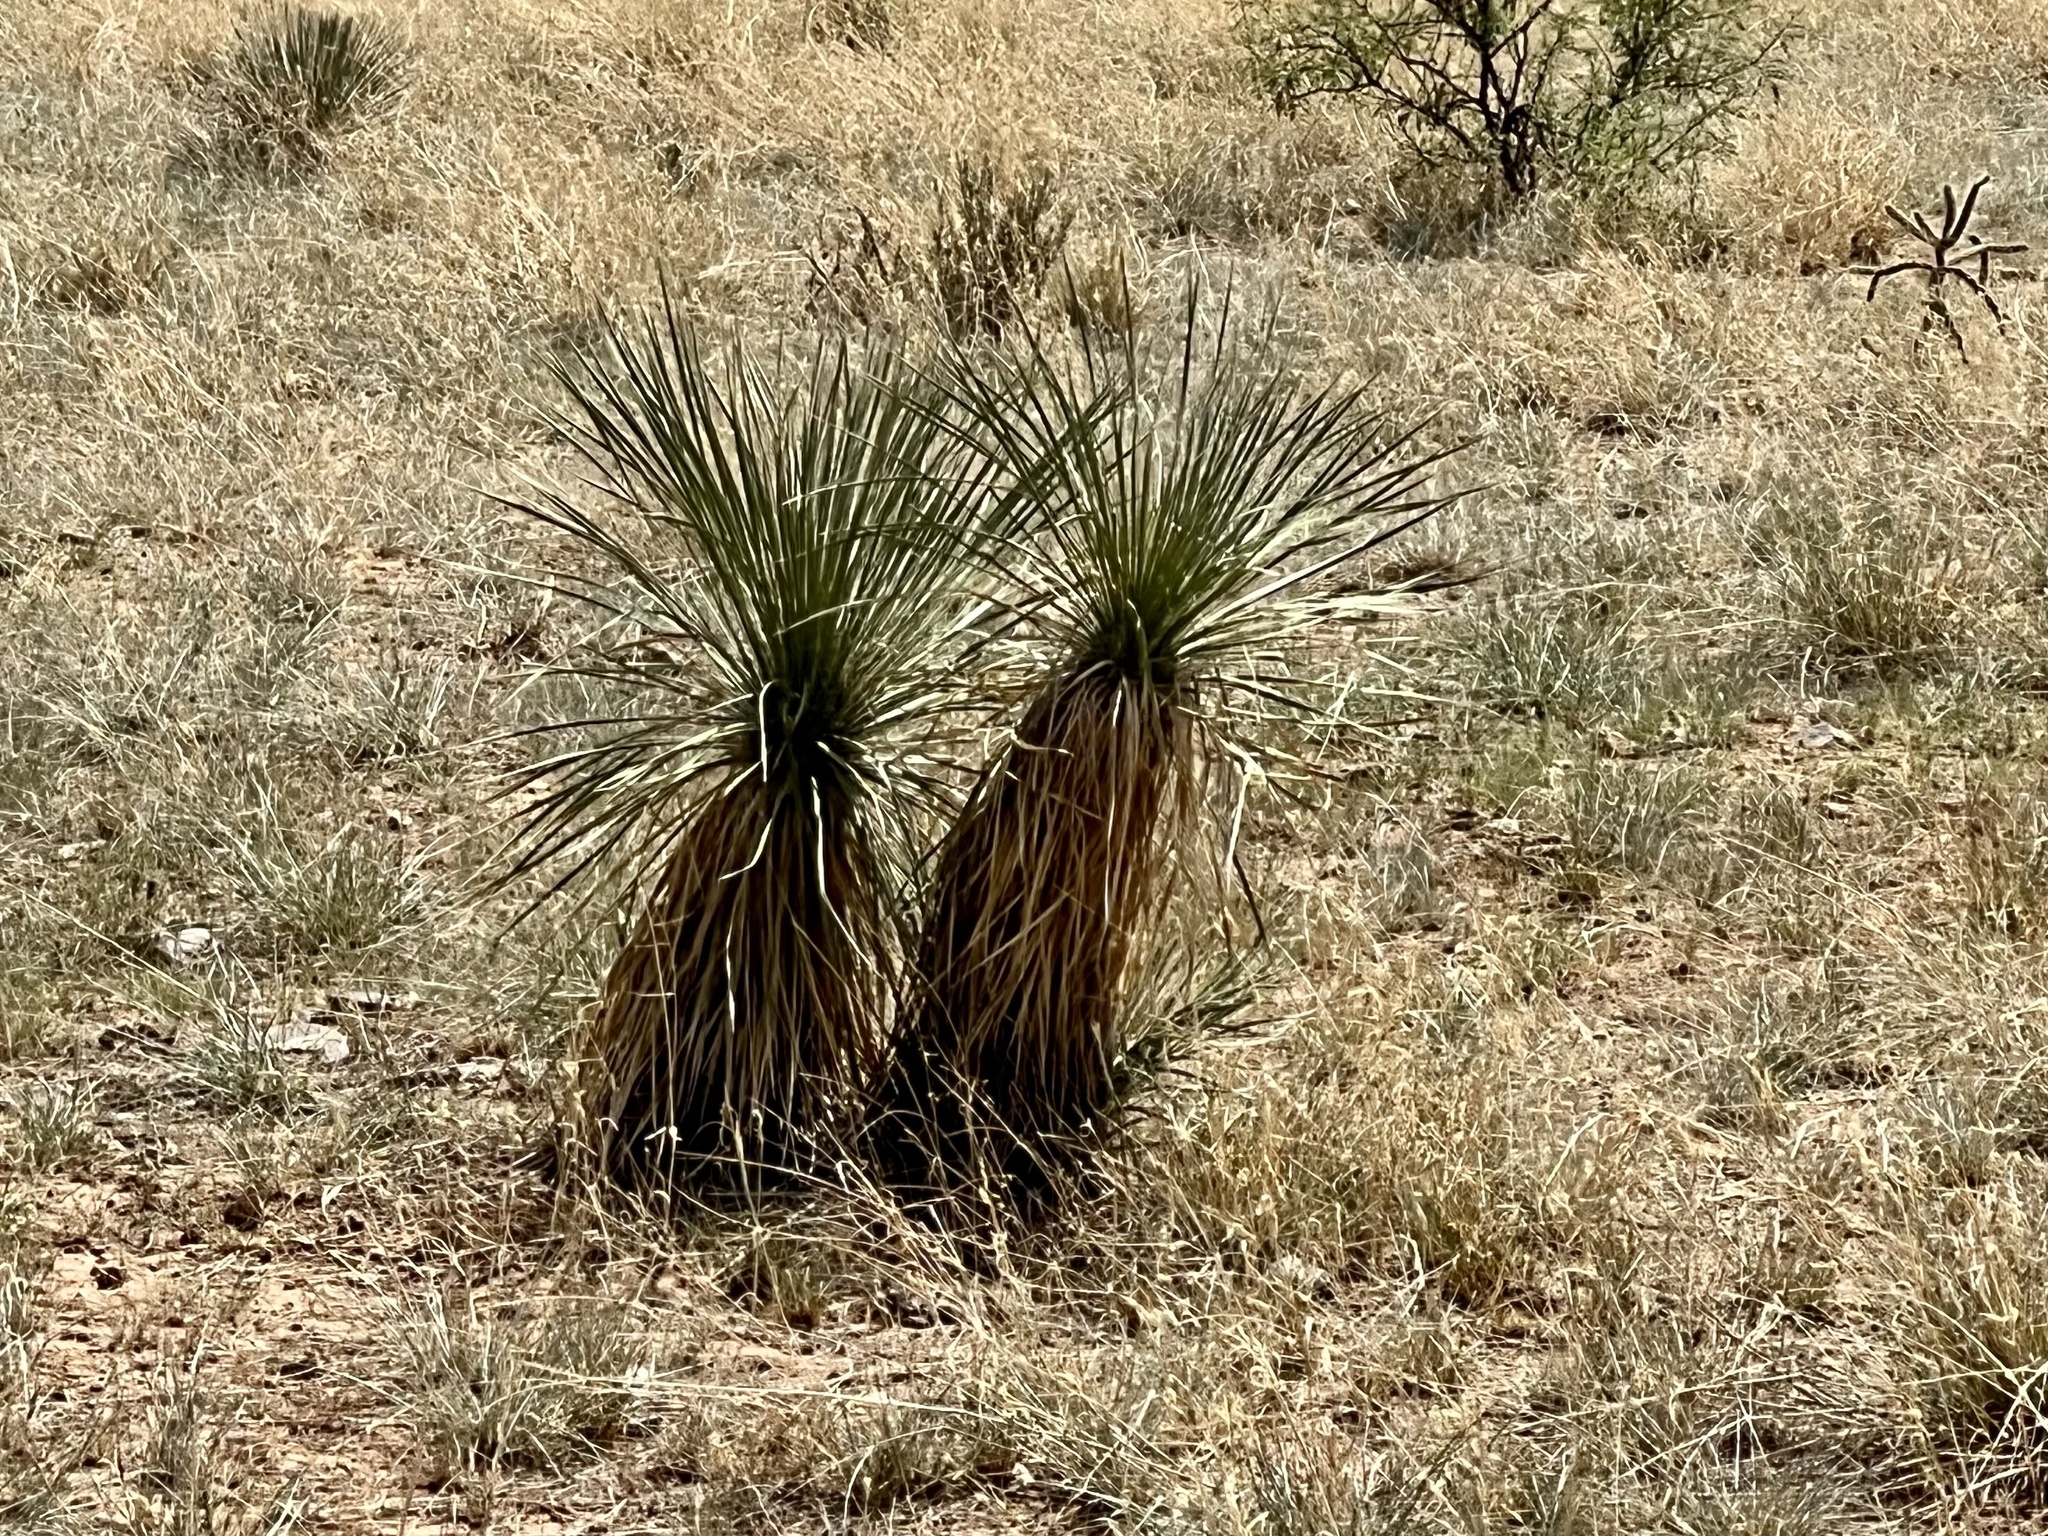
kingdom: Plantae
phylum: Tracheophyta
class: Liliopsida
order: Asparagales
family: Asparagaceae
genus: Yucca
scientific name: Yucca elata
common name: Palmella
